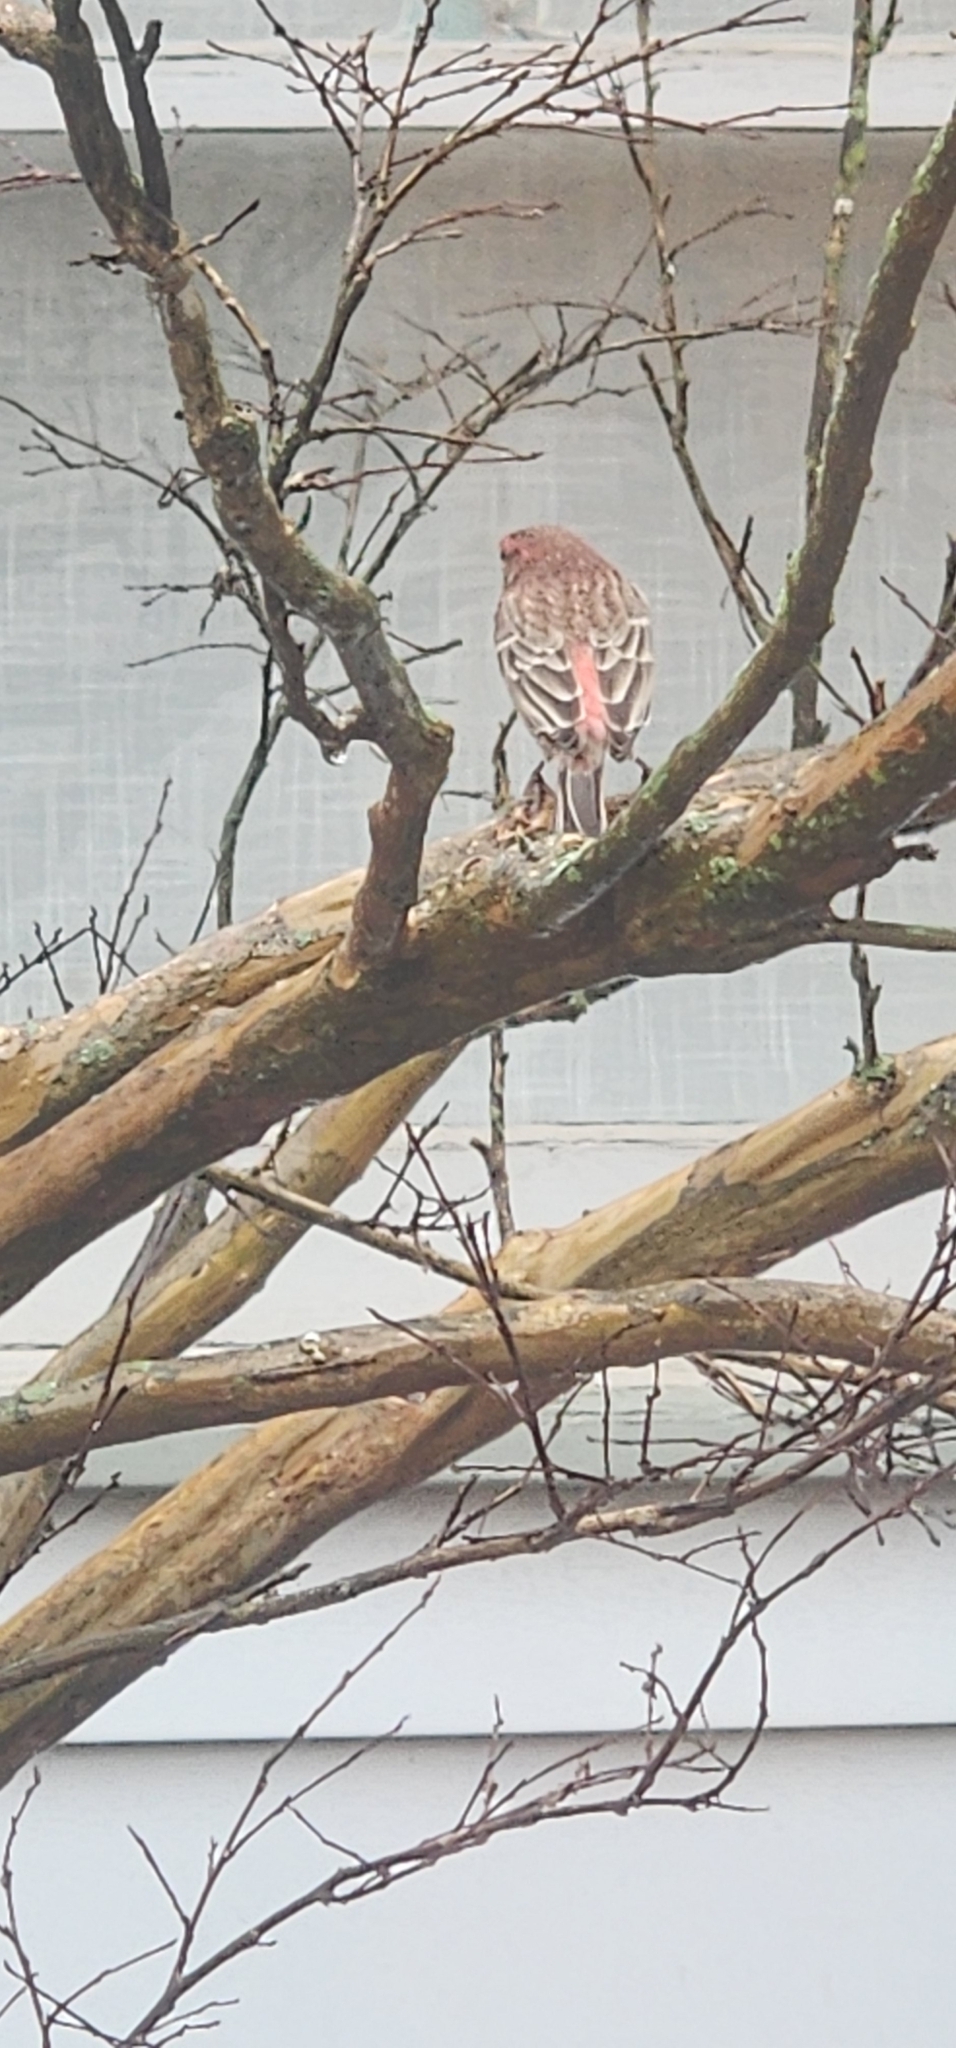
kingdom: Animalia
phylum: Chordata
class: Aves
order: Passeriformes
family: Fringillidae
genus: Haemorhous
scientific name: Haemorhous mexicanus
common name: House finch
